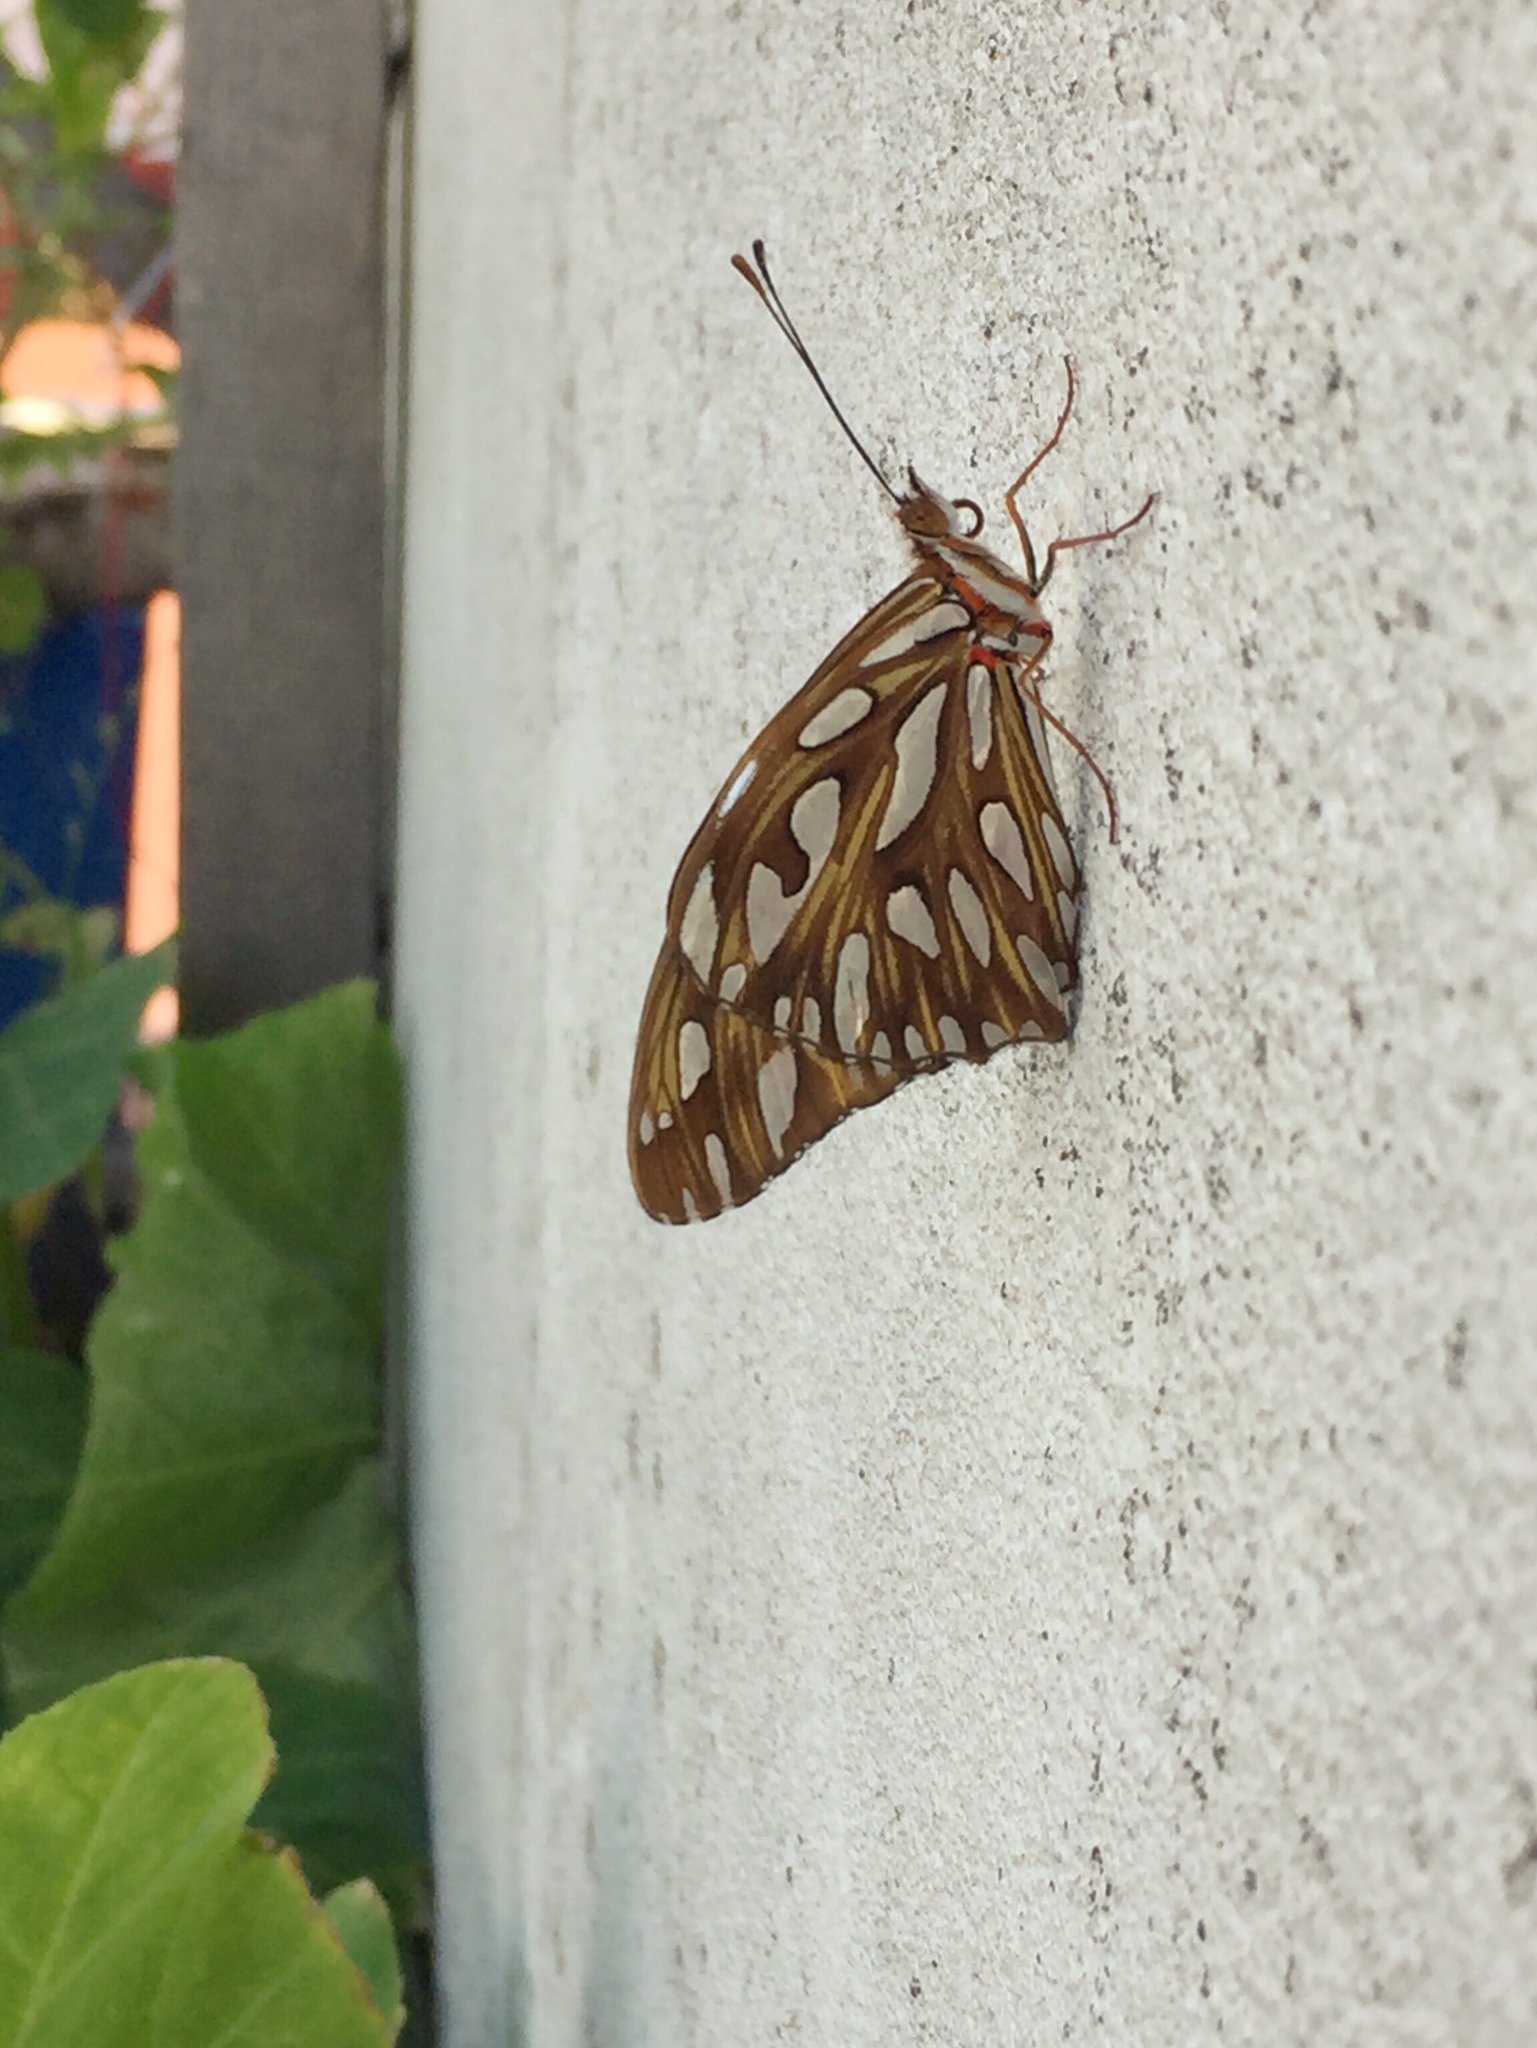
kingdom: Animalia
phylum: Arthropoda
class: Insecta
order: Lepidoptera
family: Nymphalidae
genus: Dione
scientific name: Dione vanillae
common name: Gulf fritillary
